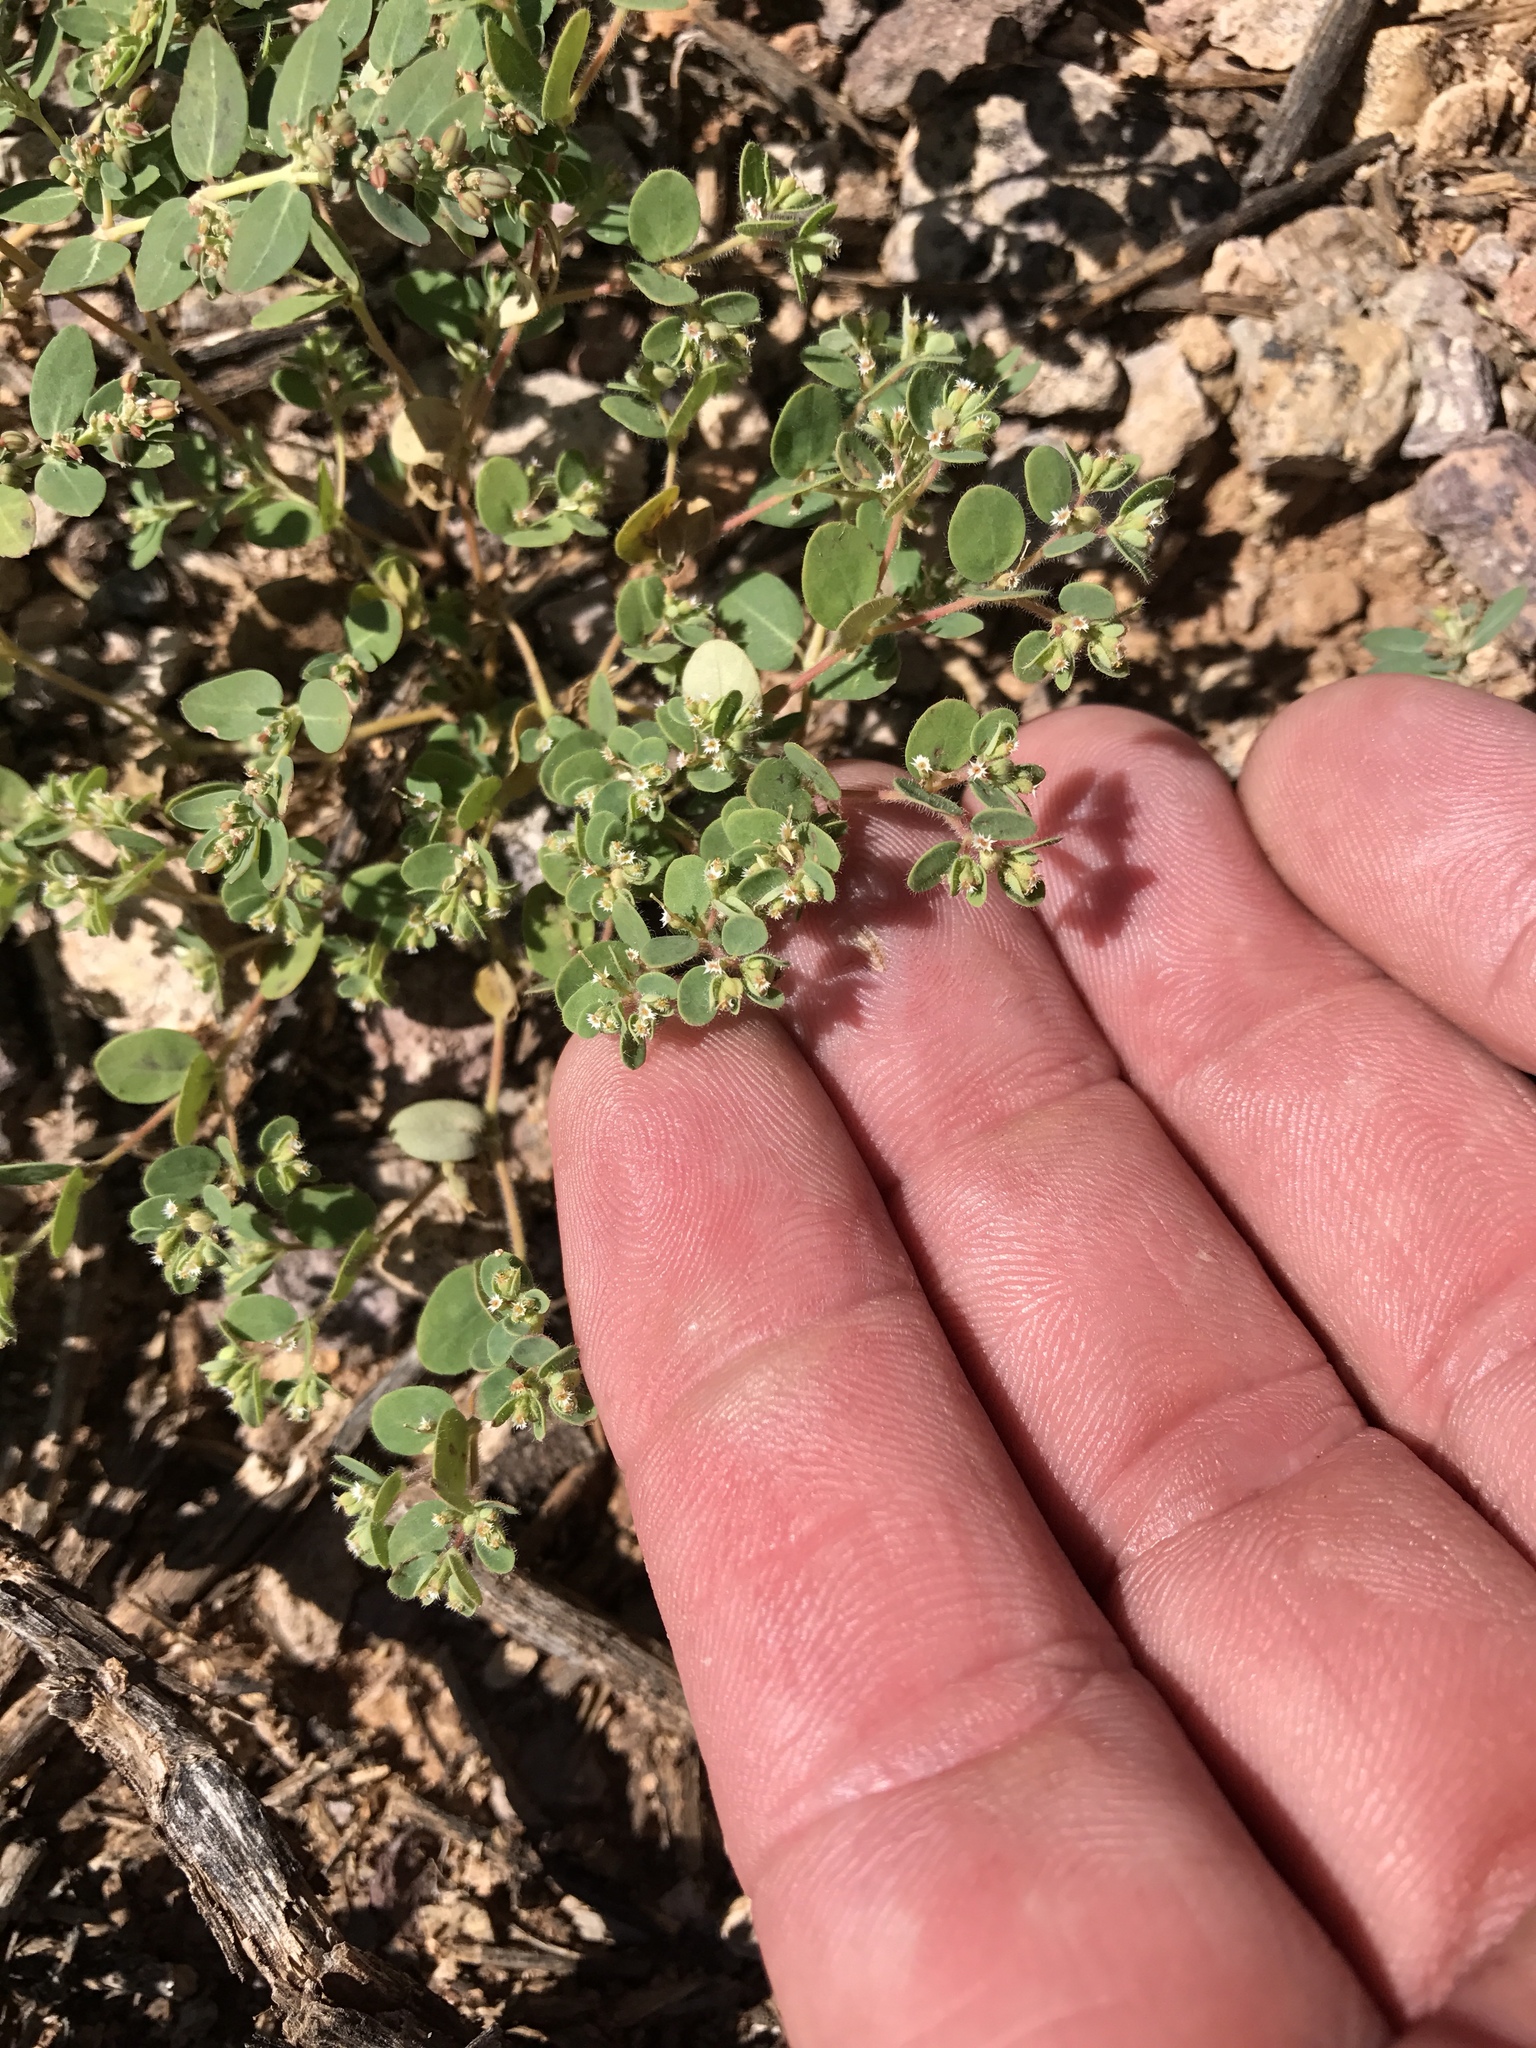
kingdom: Plantae
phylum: Tracheophyta
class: Magnoliopsida
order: Malpighiales
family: Euphorbiaceae
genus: Euphorbia
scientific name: Euphorbia setiloba
